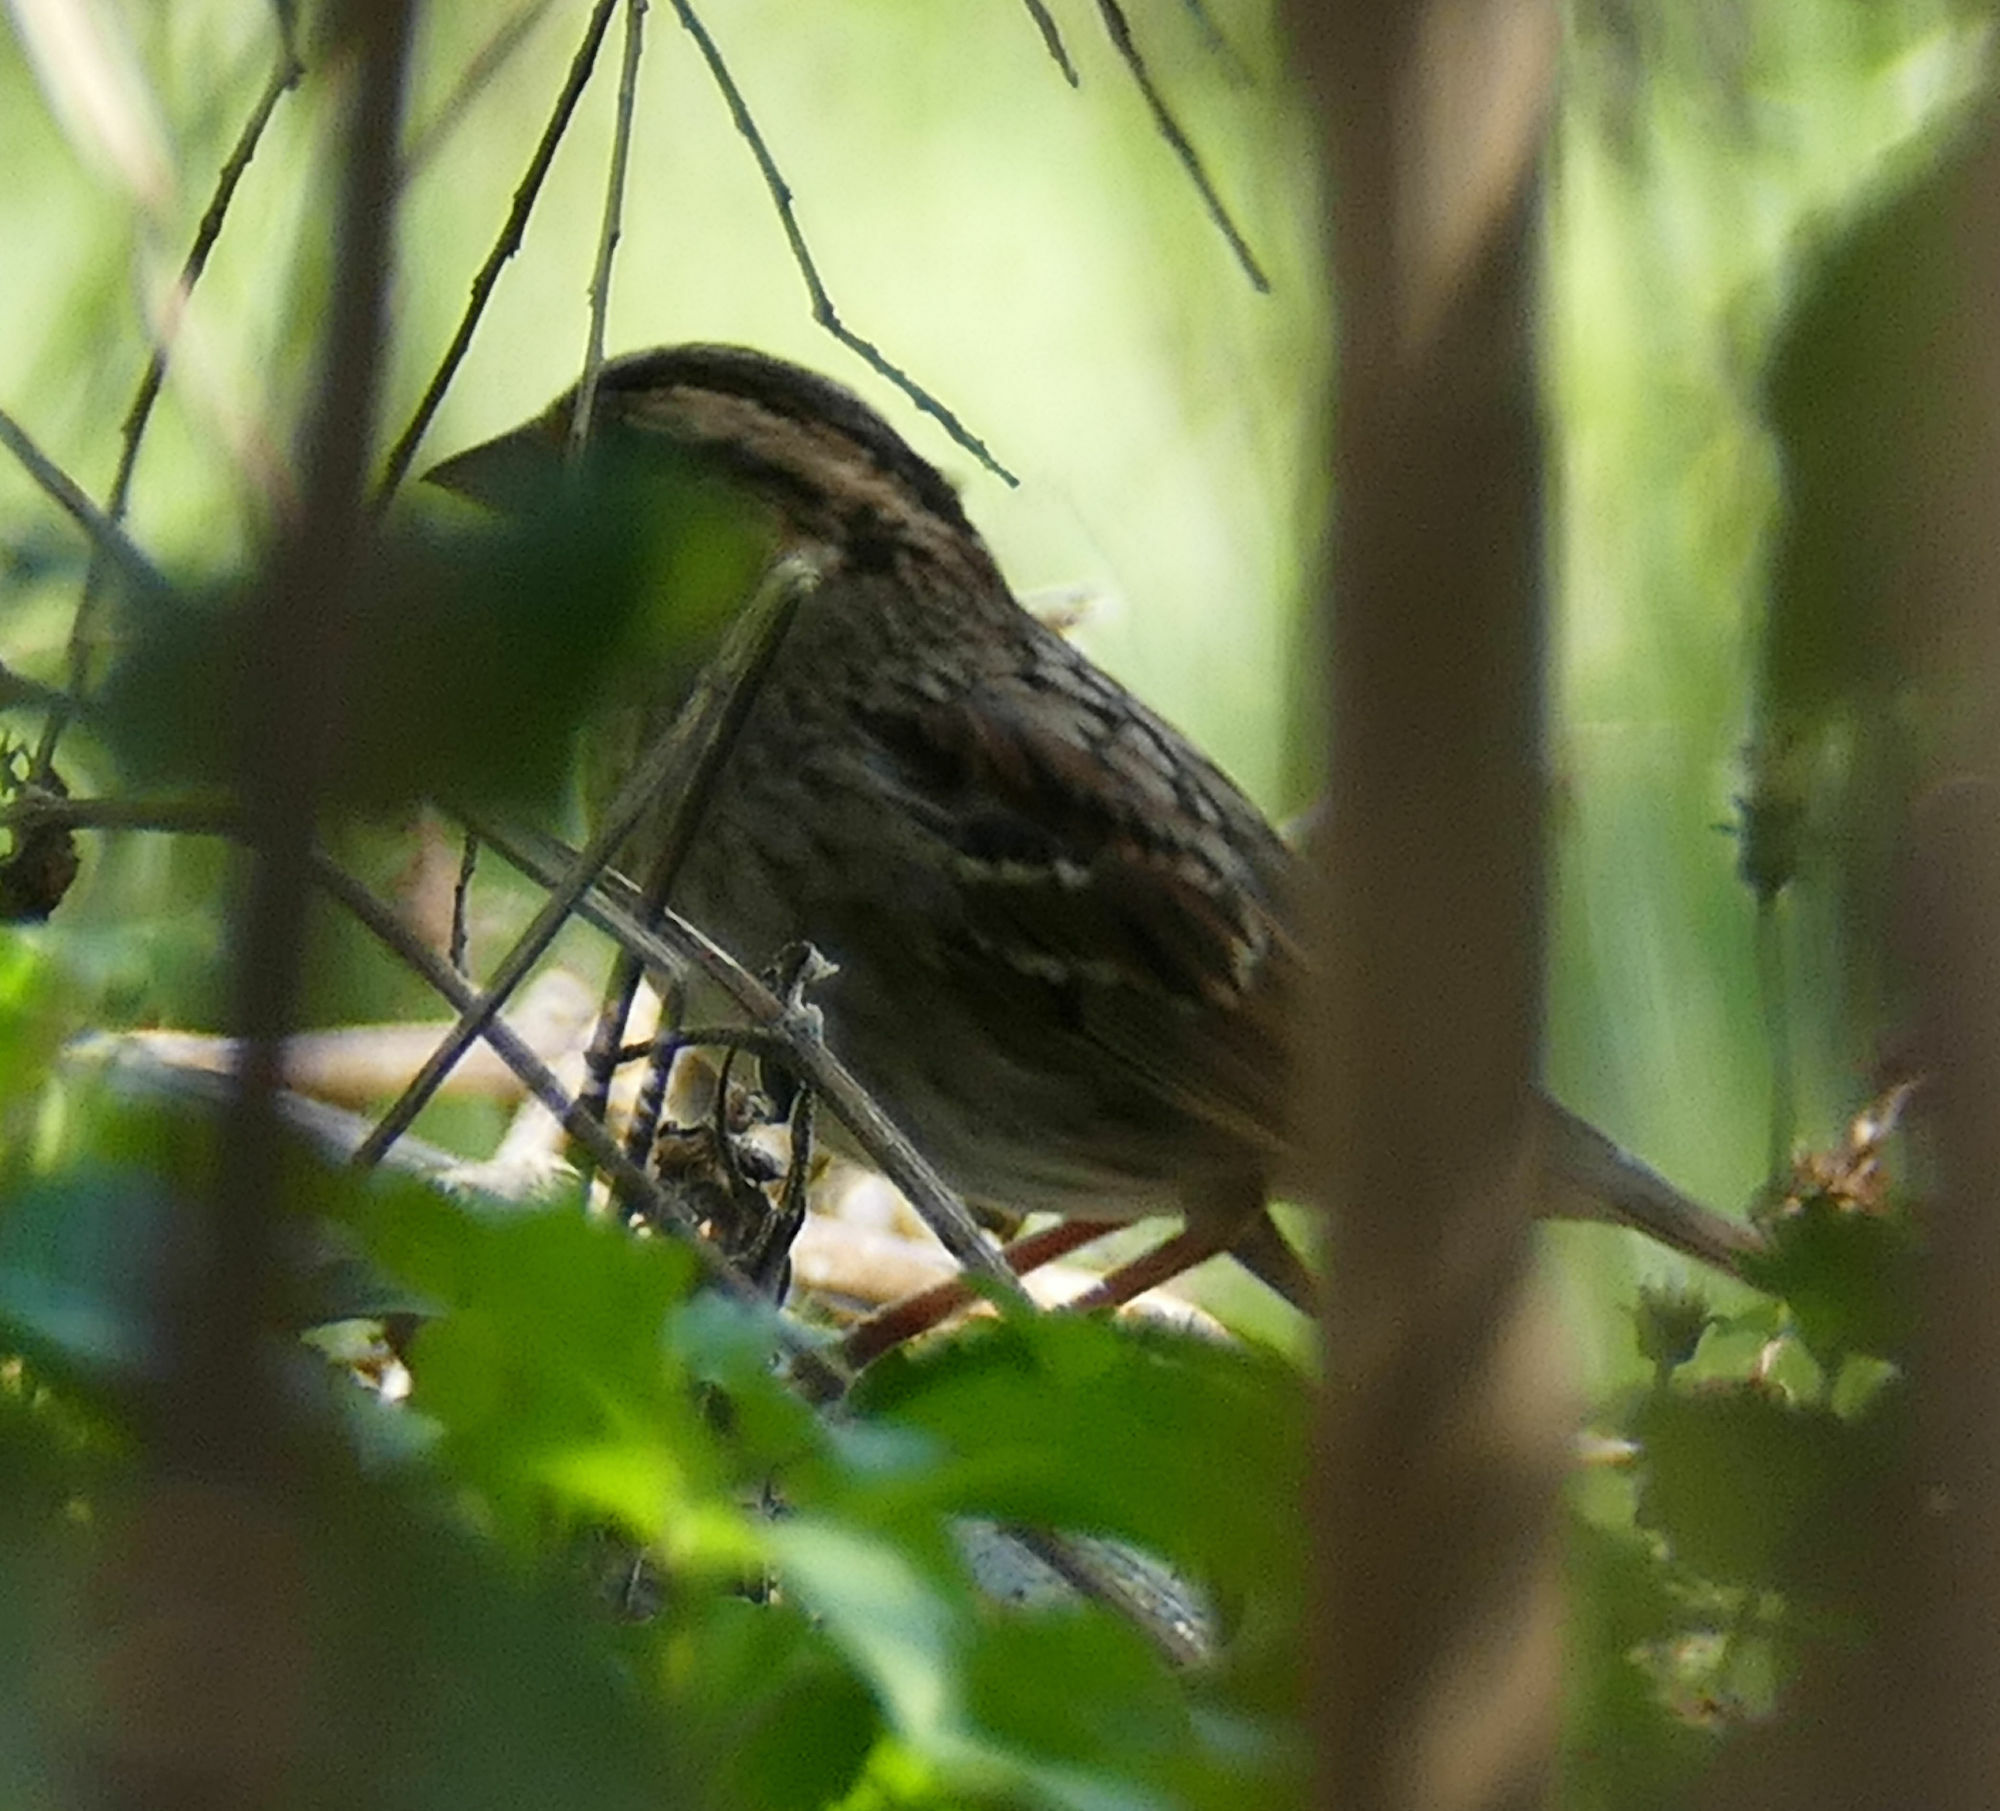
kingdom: Animalia
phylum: Chordata
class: Aves
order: Passeriformes
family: Passerellidae
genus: Zonotrichia
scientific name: Zonotrichia albicollis
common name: White-throated sparrow
